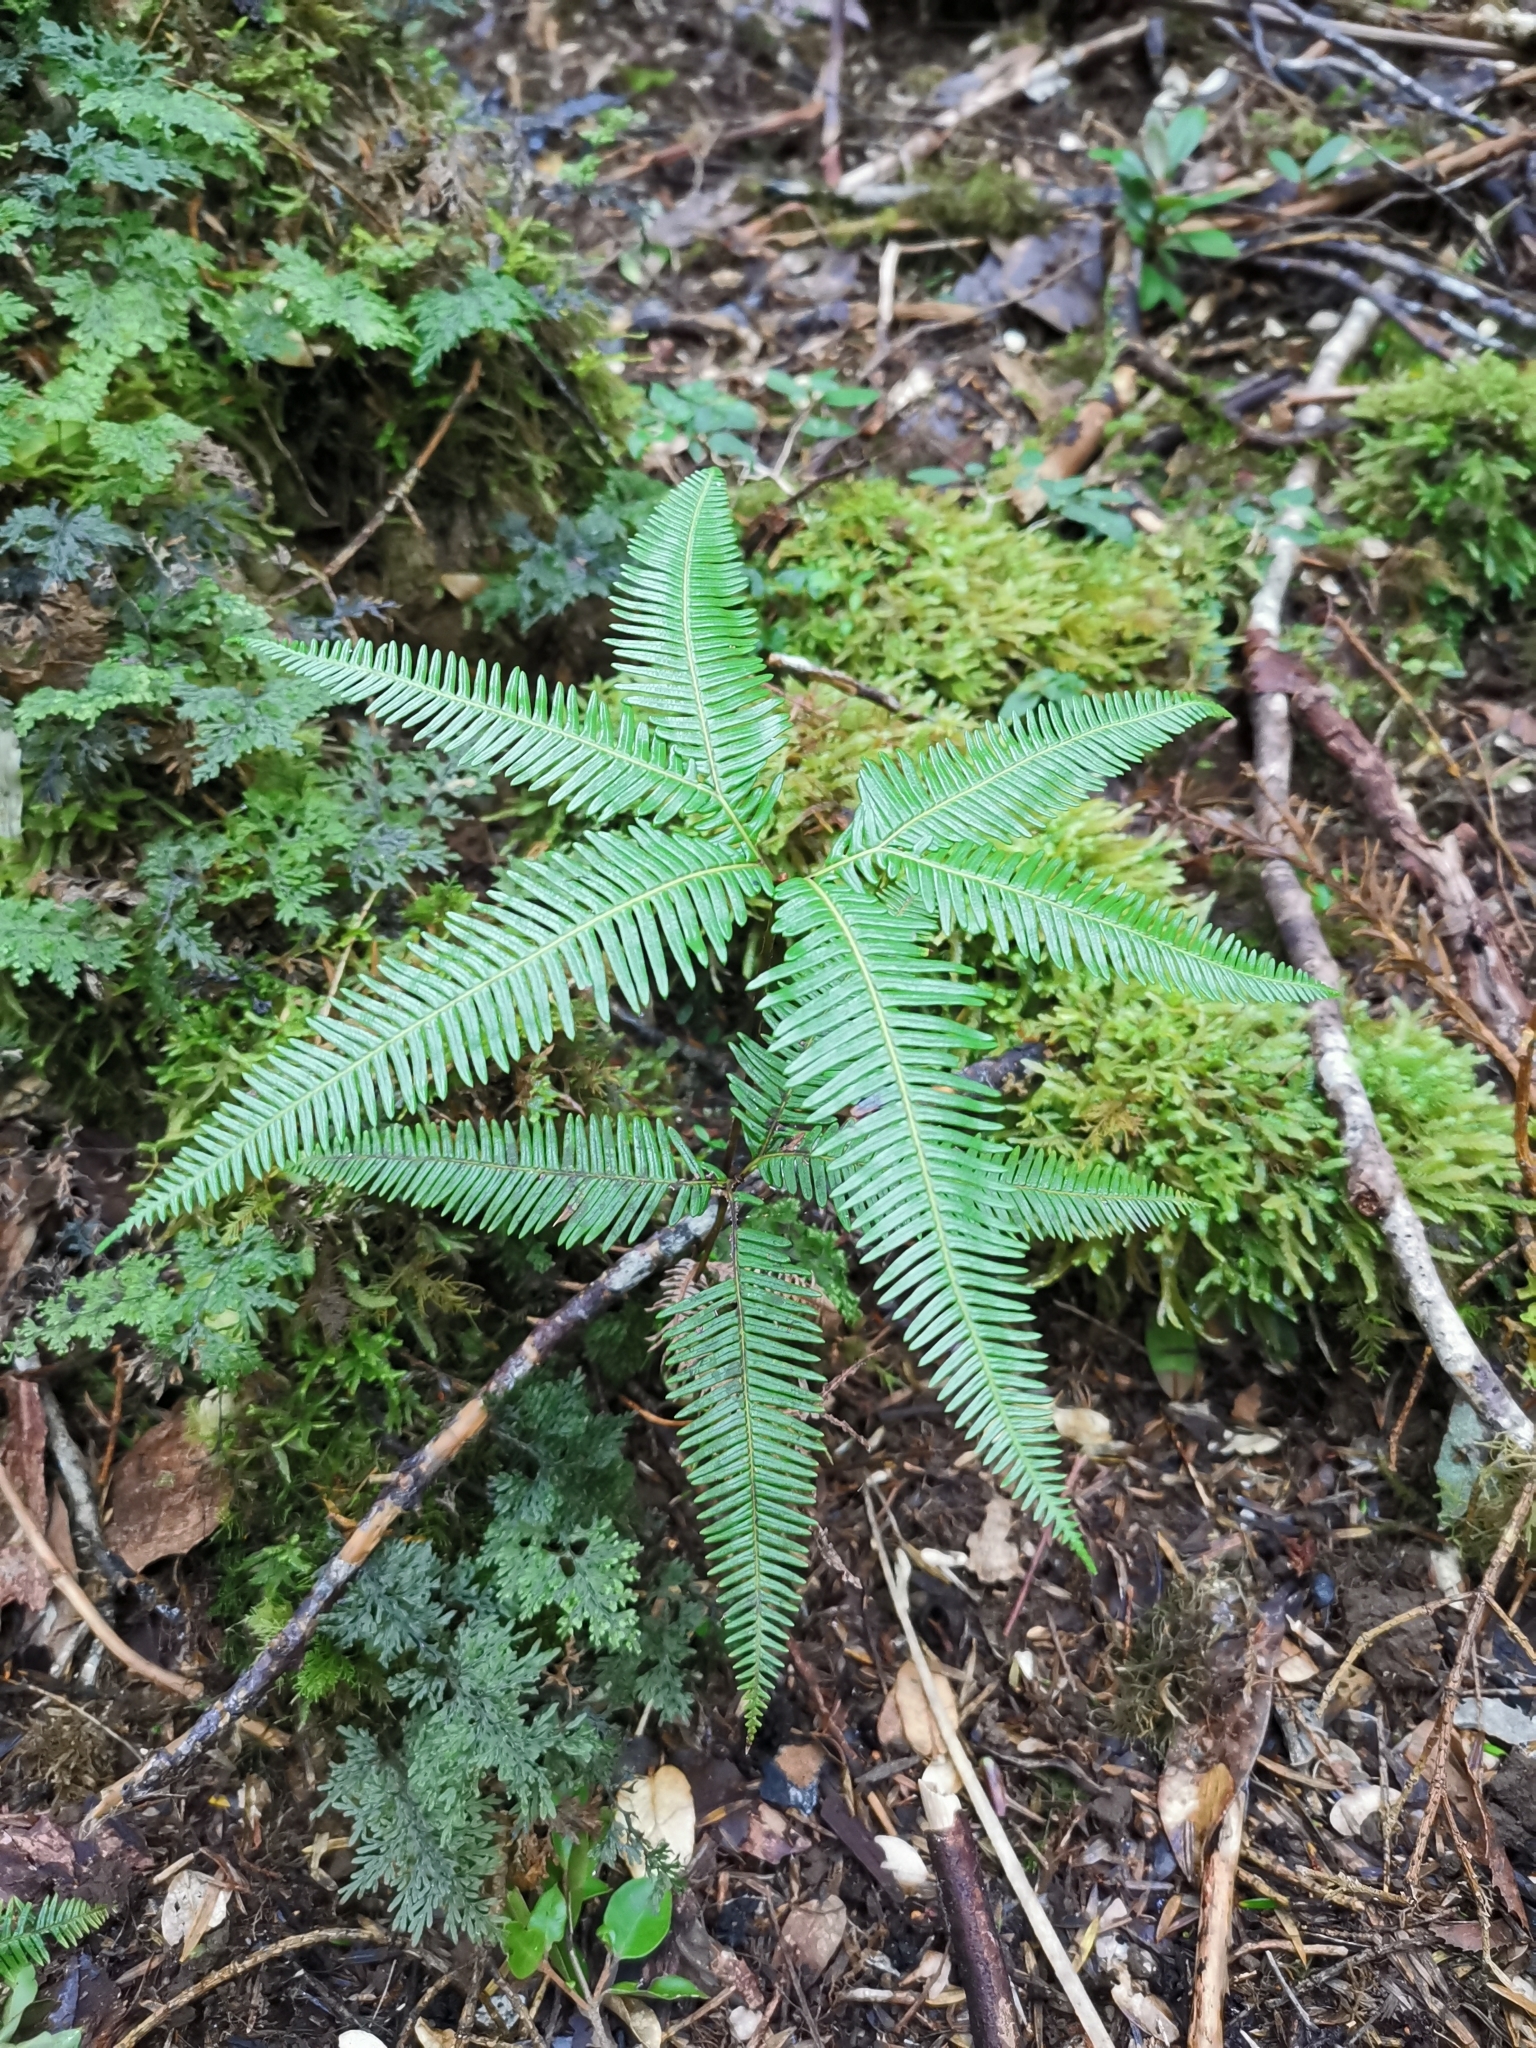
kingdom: Plantae
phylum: Tracheophyta
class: Polypodiopsida
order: Gleicheniales
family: Gleicheniaceae
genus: Sticherus
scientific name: Sticherus quadripartitus
